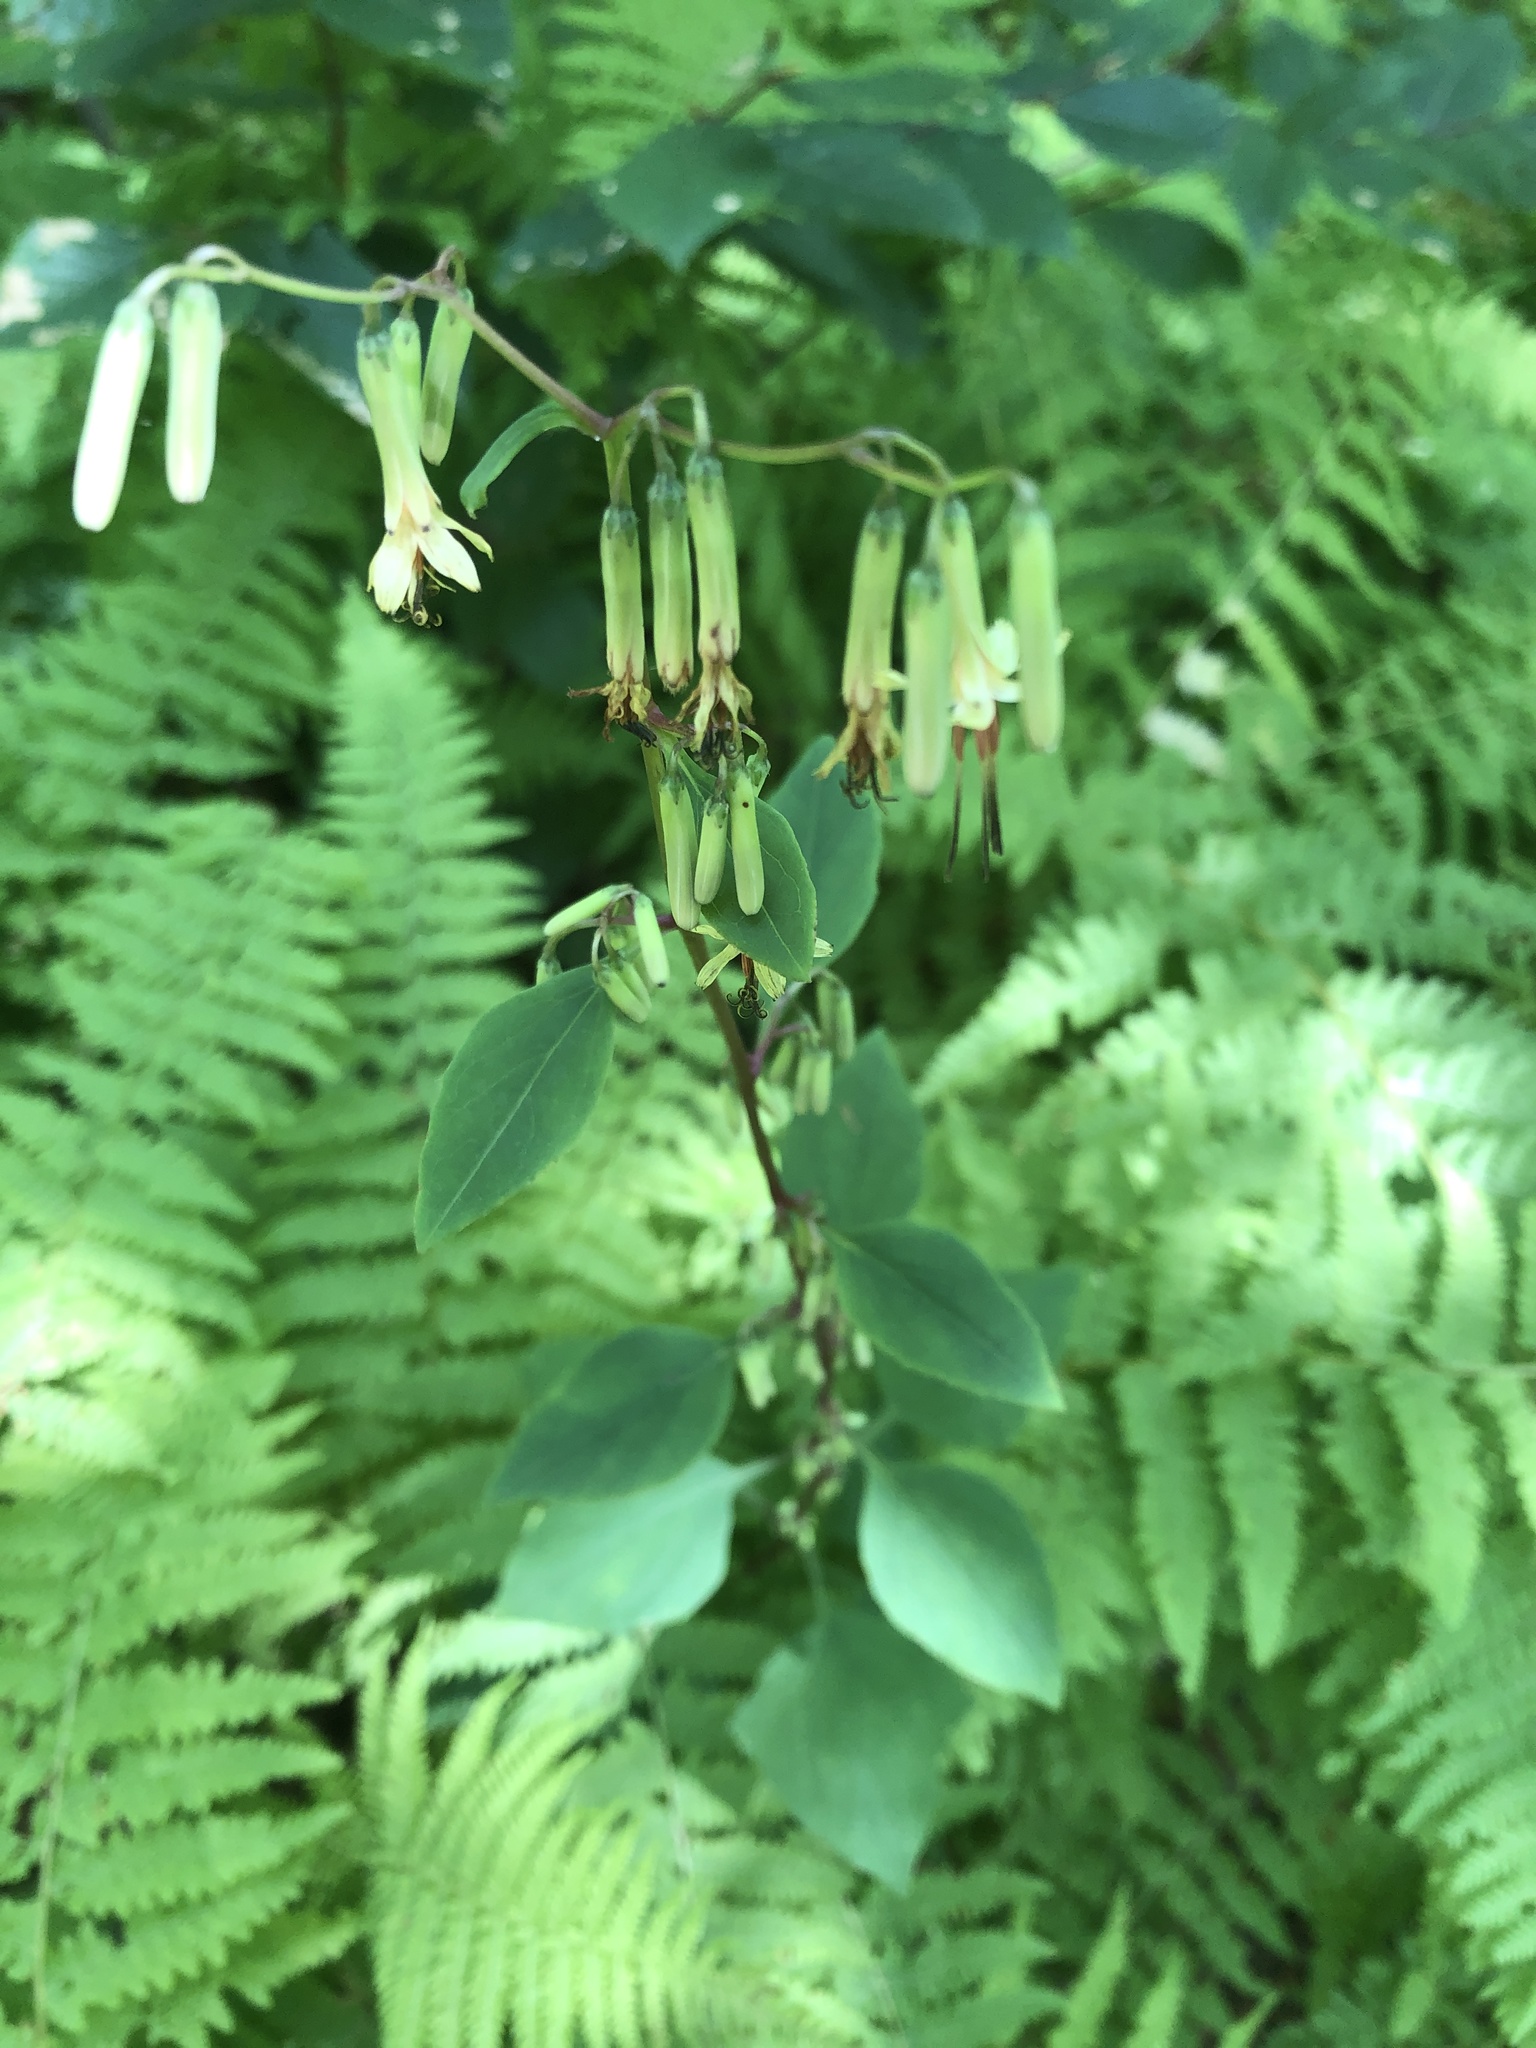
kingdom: Plantae
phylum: Tracheophyta
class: Magnoliopsida
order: Asterales
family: Asteraceae
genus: Nabalus
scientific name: Nabalus altissima
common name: Tall rattlesnakeroot
